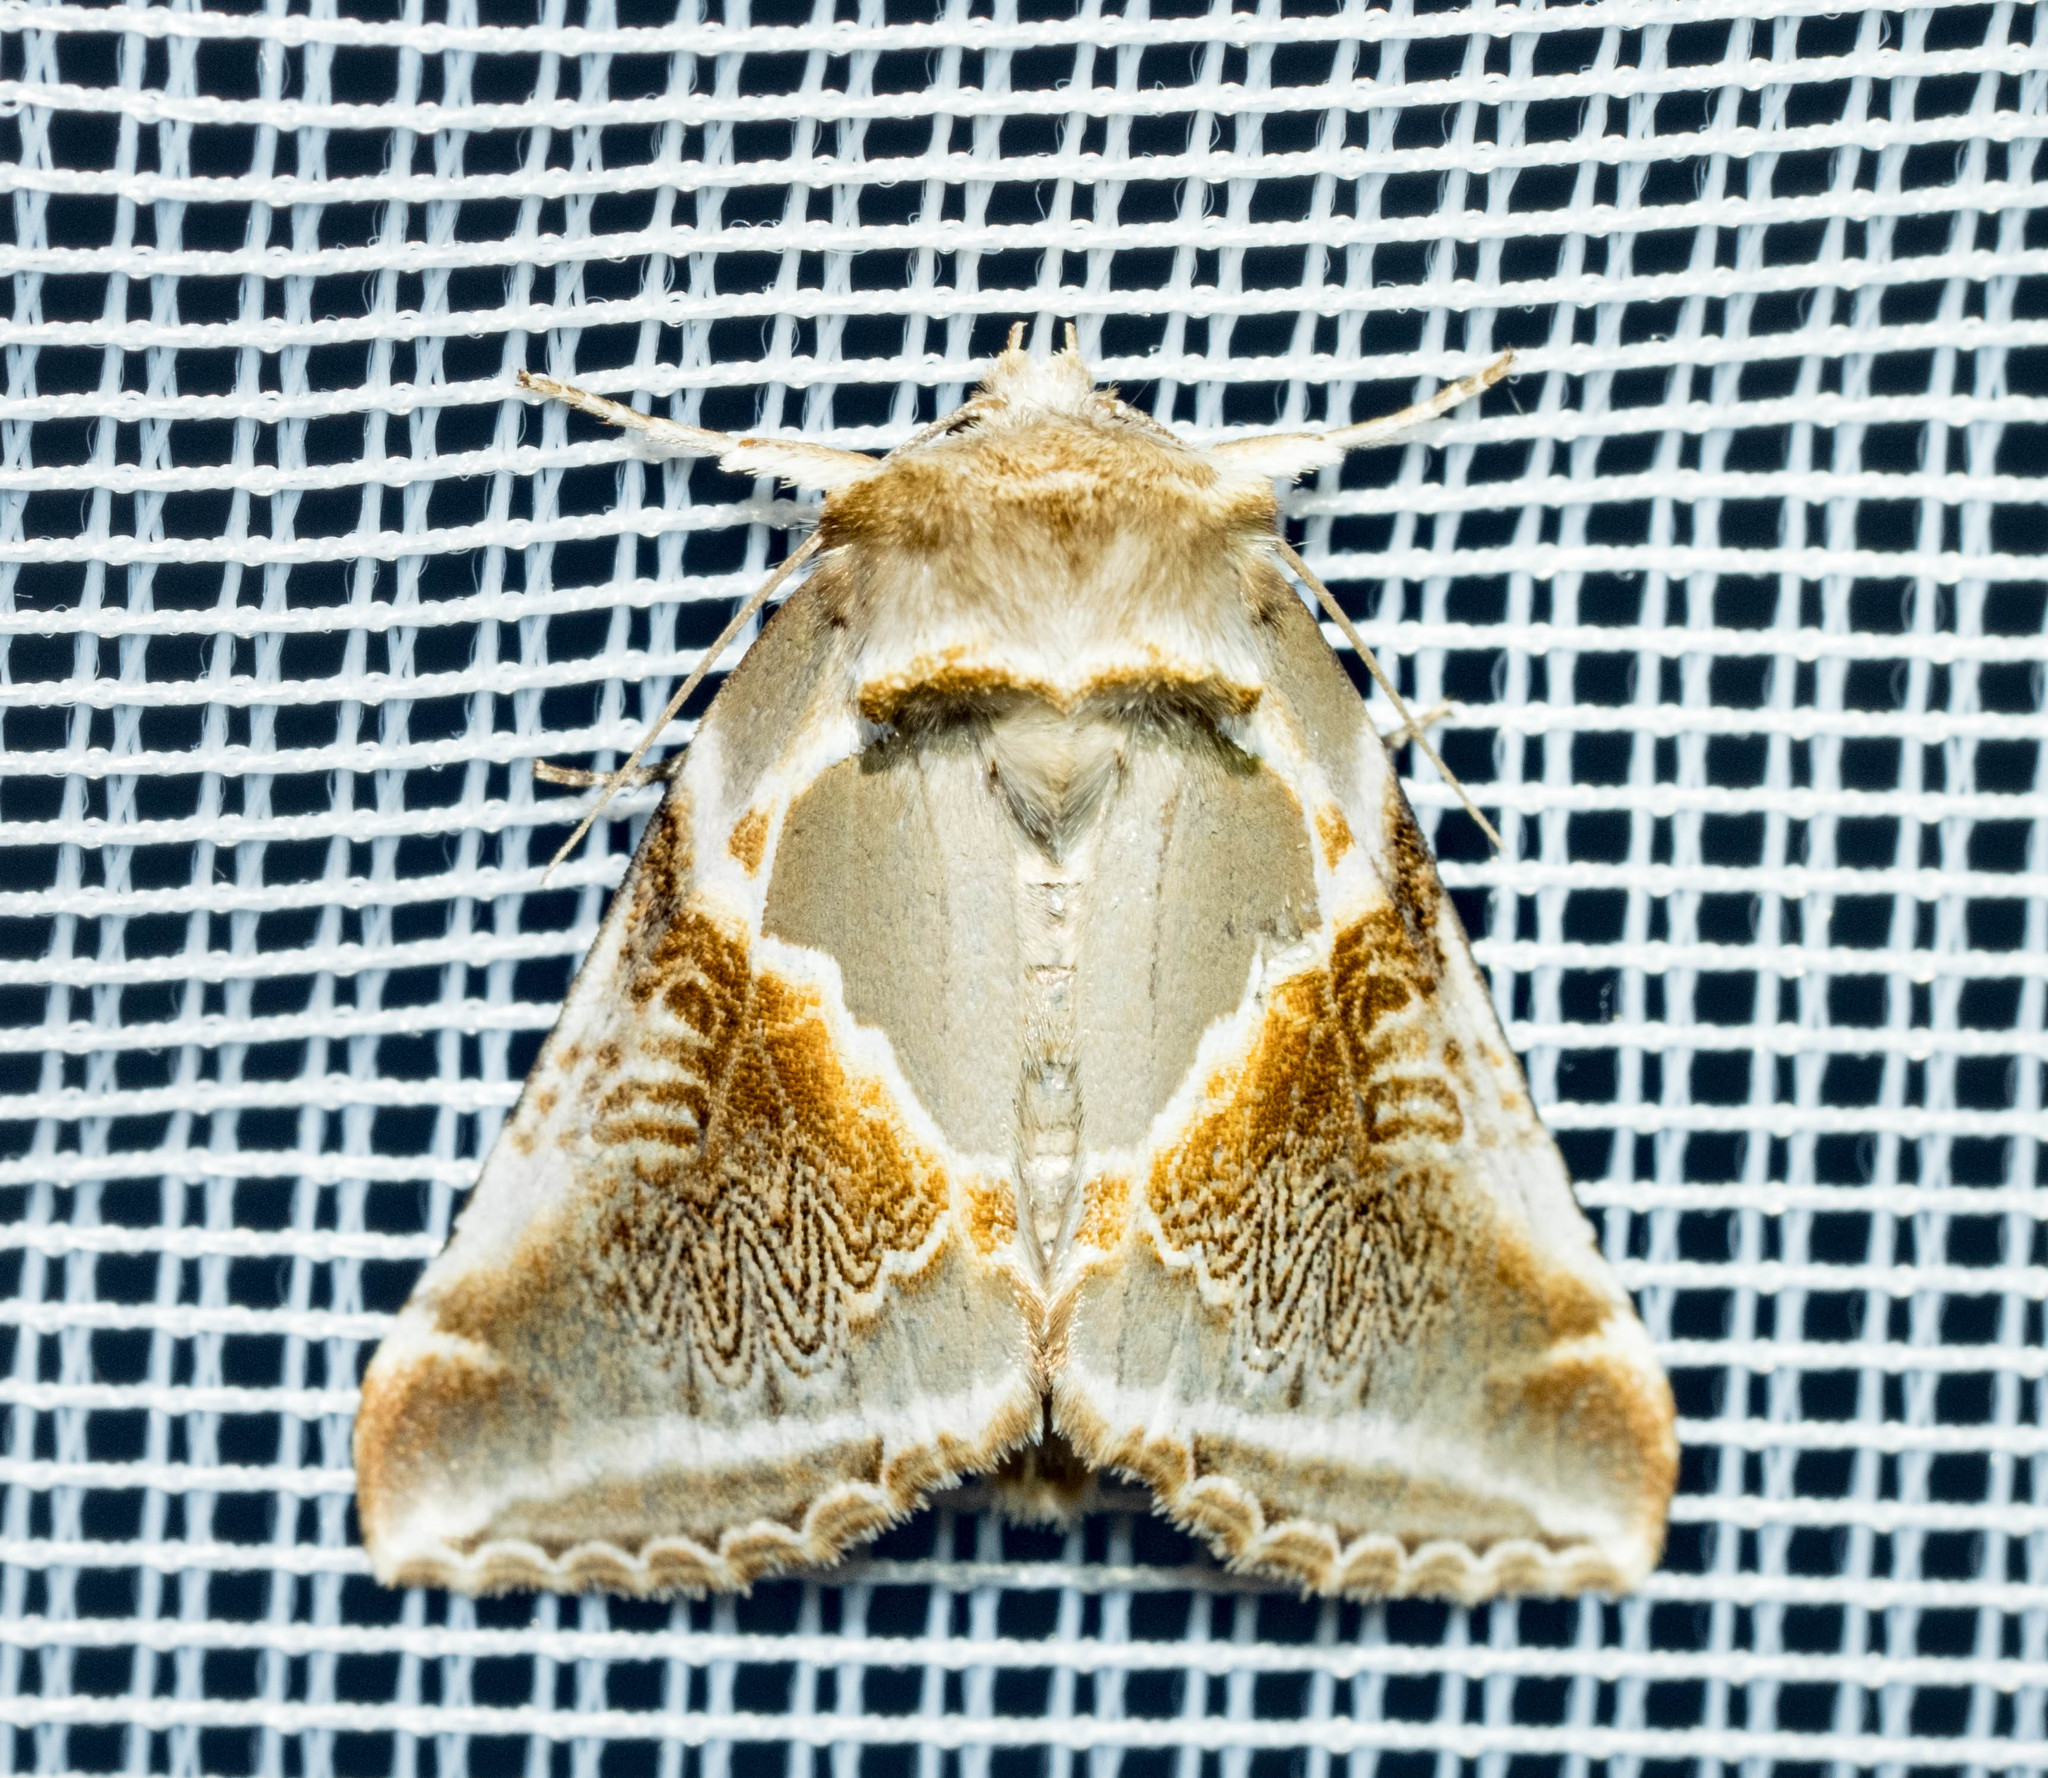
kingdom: Animalia
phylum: Arthropoda
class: Insecta
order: Lepidoptera
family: Drepanidae
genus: Habrosyne
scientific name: Habrosyne pyritoides
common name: Buff arches
